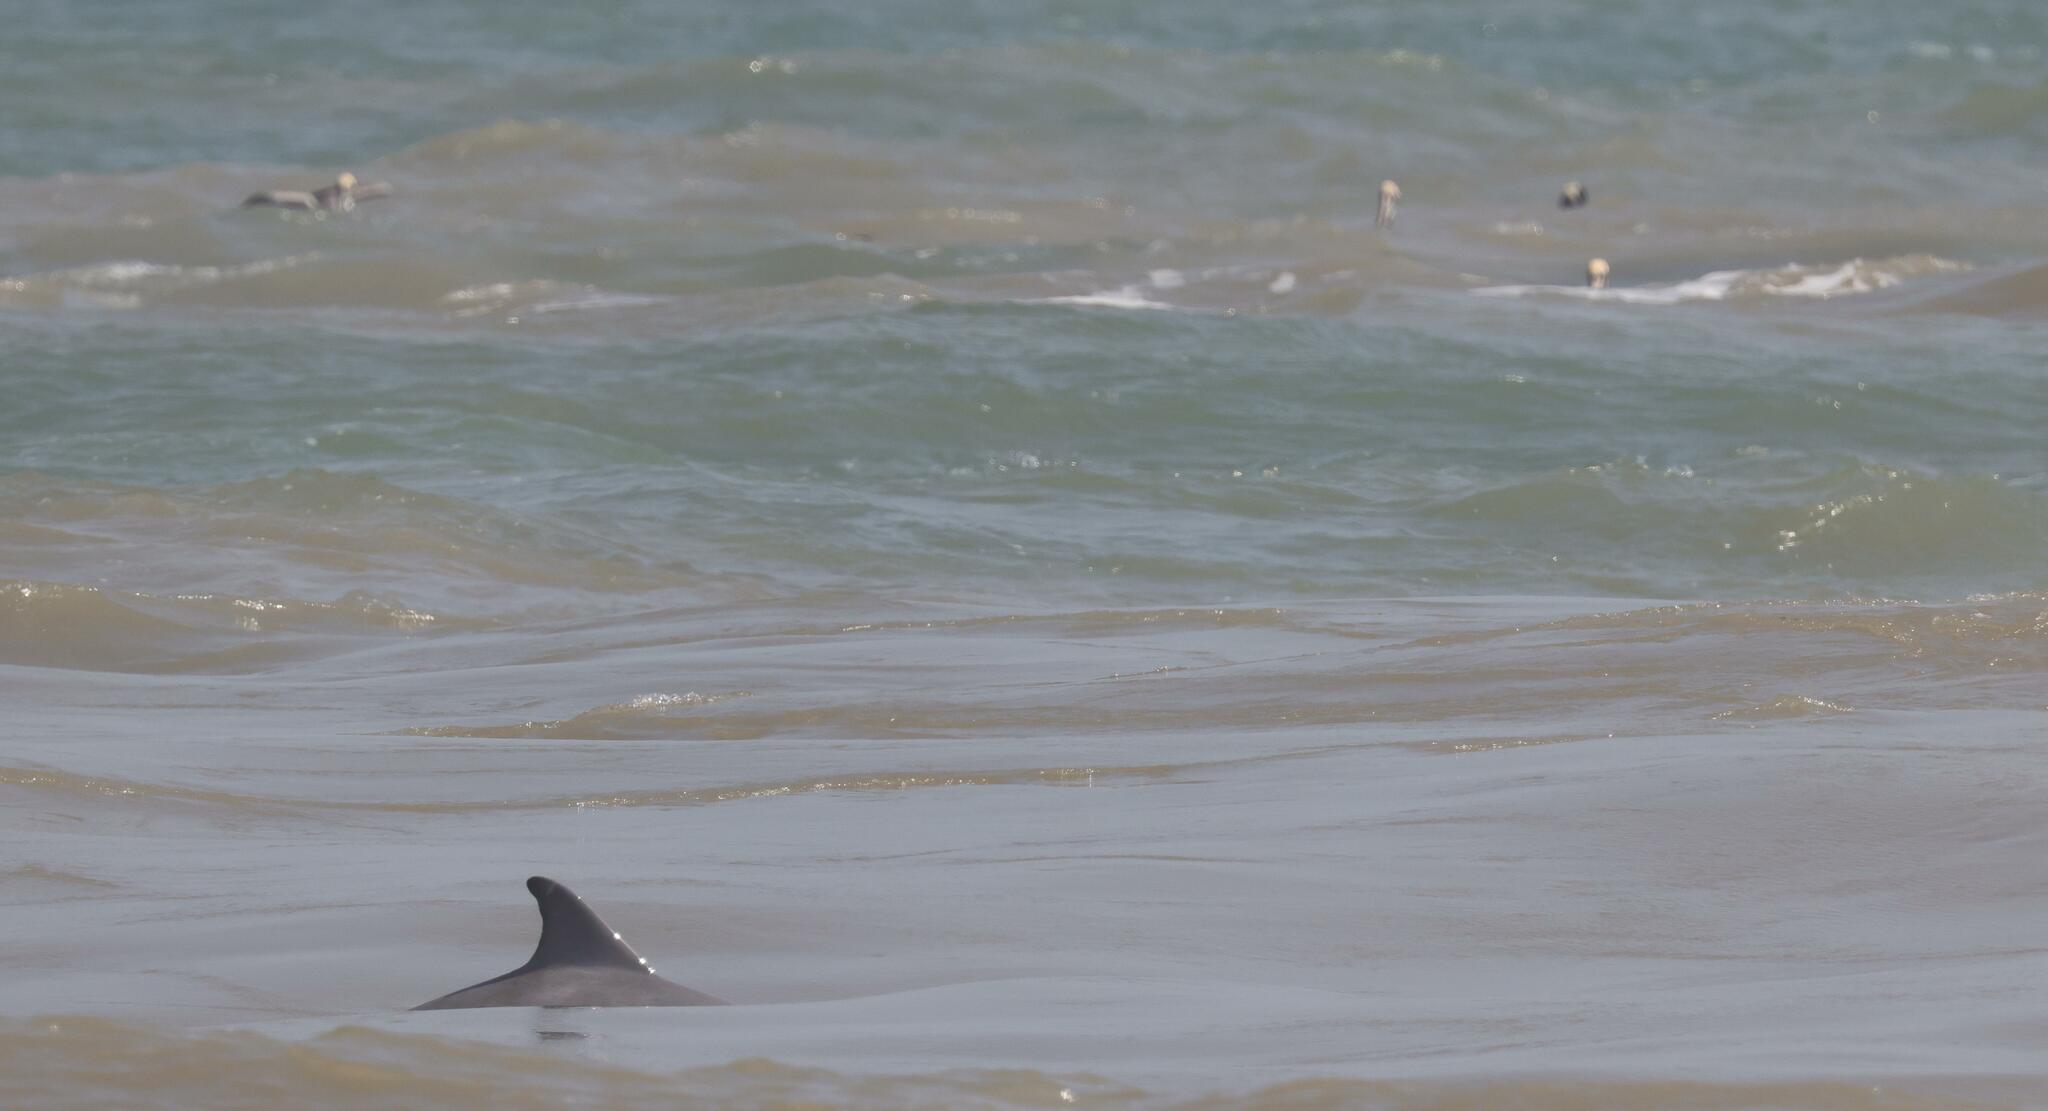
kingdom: Animalia
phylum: Chordata
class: Mammalia
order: Cetacea
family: Delphinidae
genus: Tursiops
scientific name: Tursiops truncatus
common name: Bottlenose dolphin
